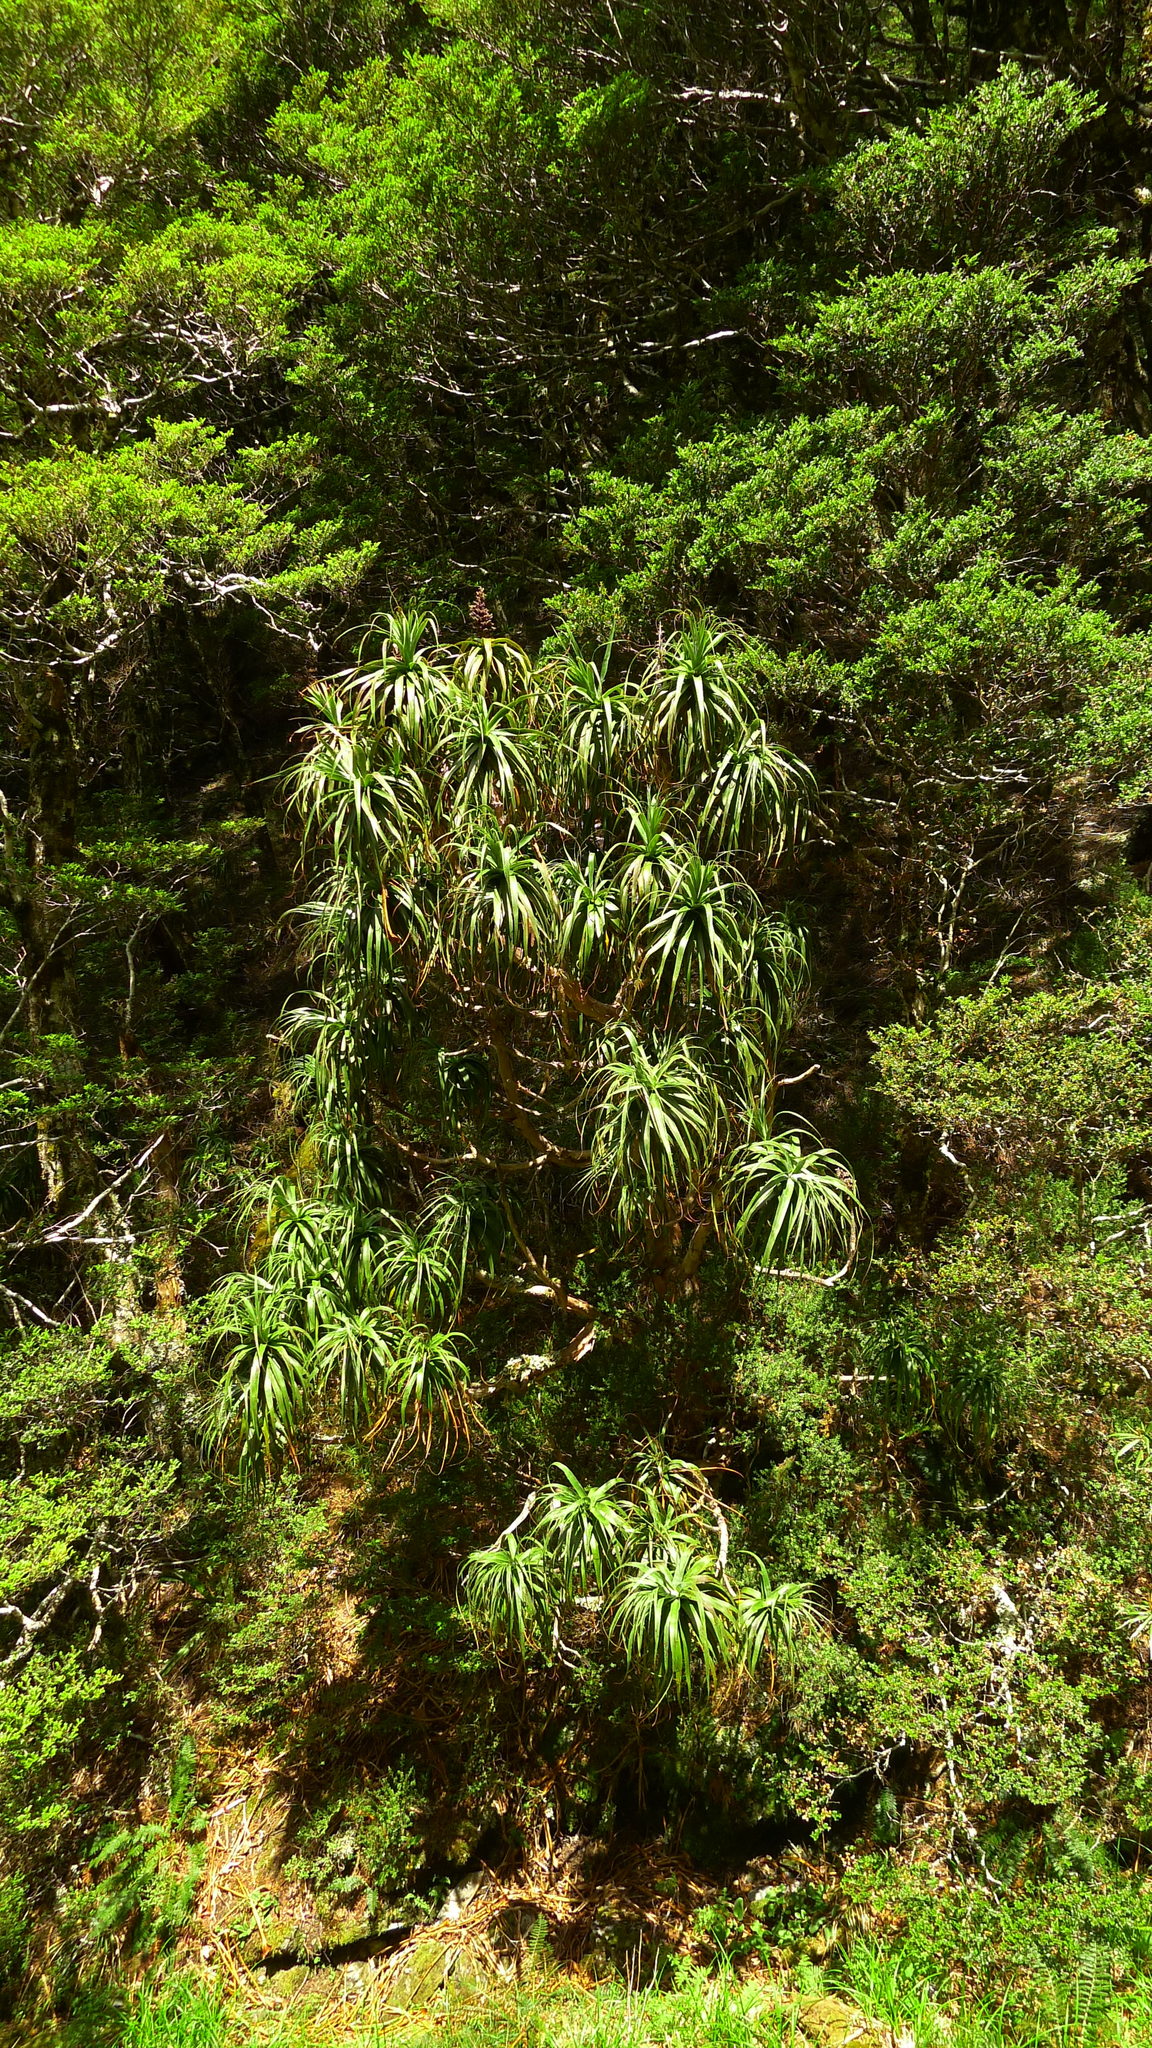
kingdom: Plantae
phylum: Tracheophyta
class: Magnoliopsida
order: Ericales
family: Ericaceae
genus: Dracophyllum
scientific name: Dracophyllum traversii
